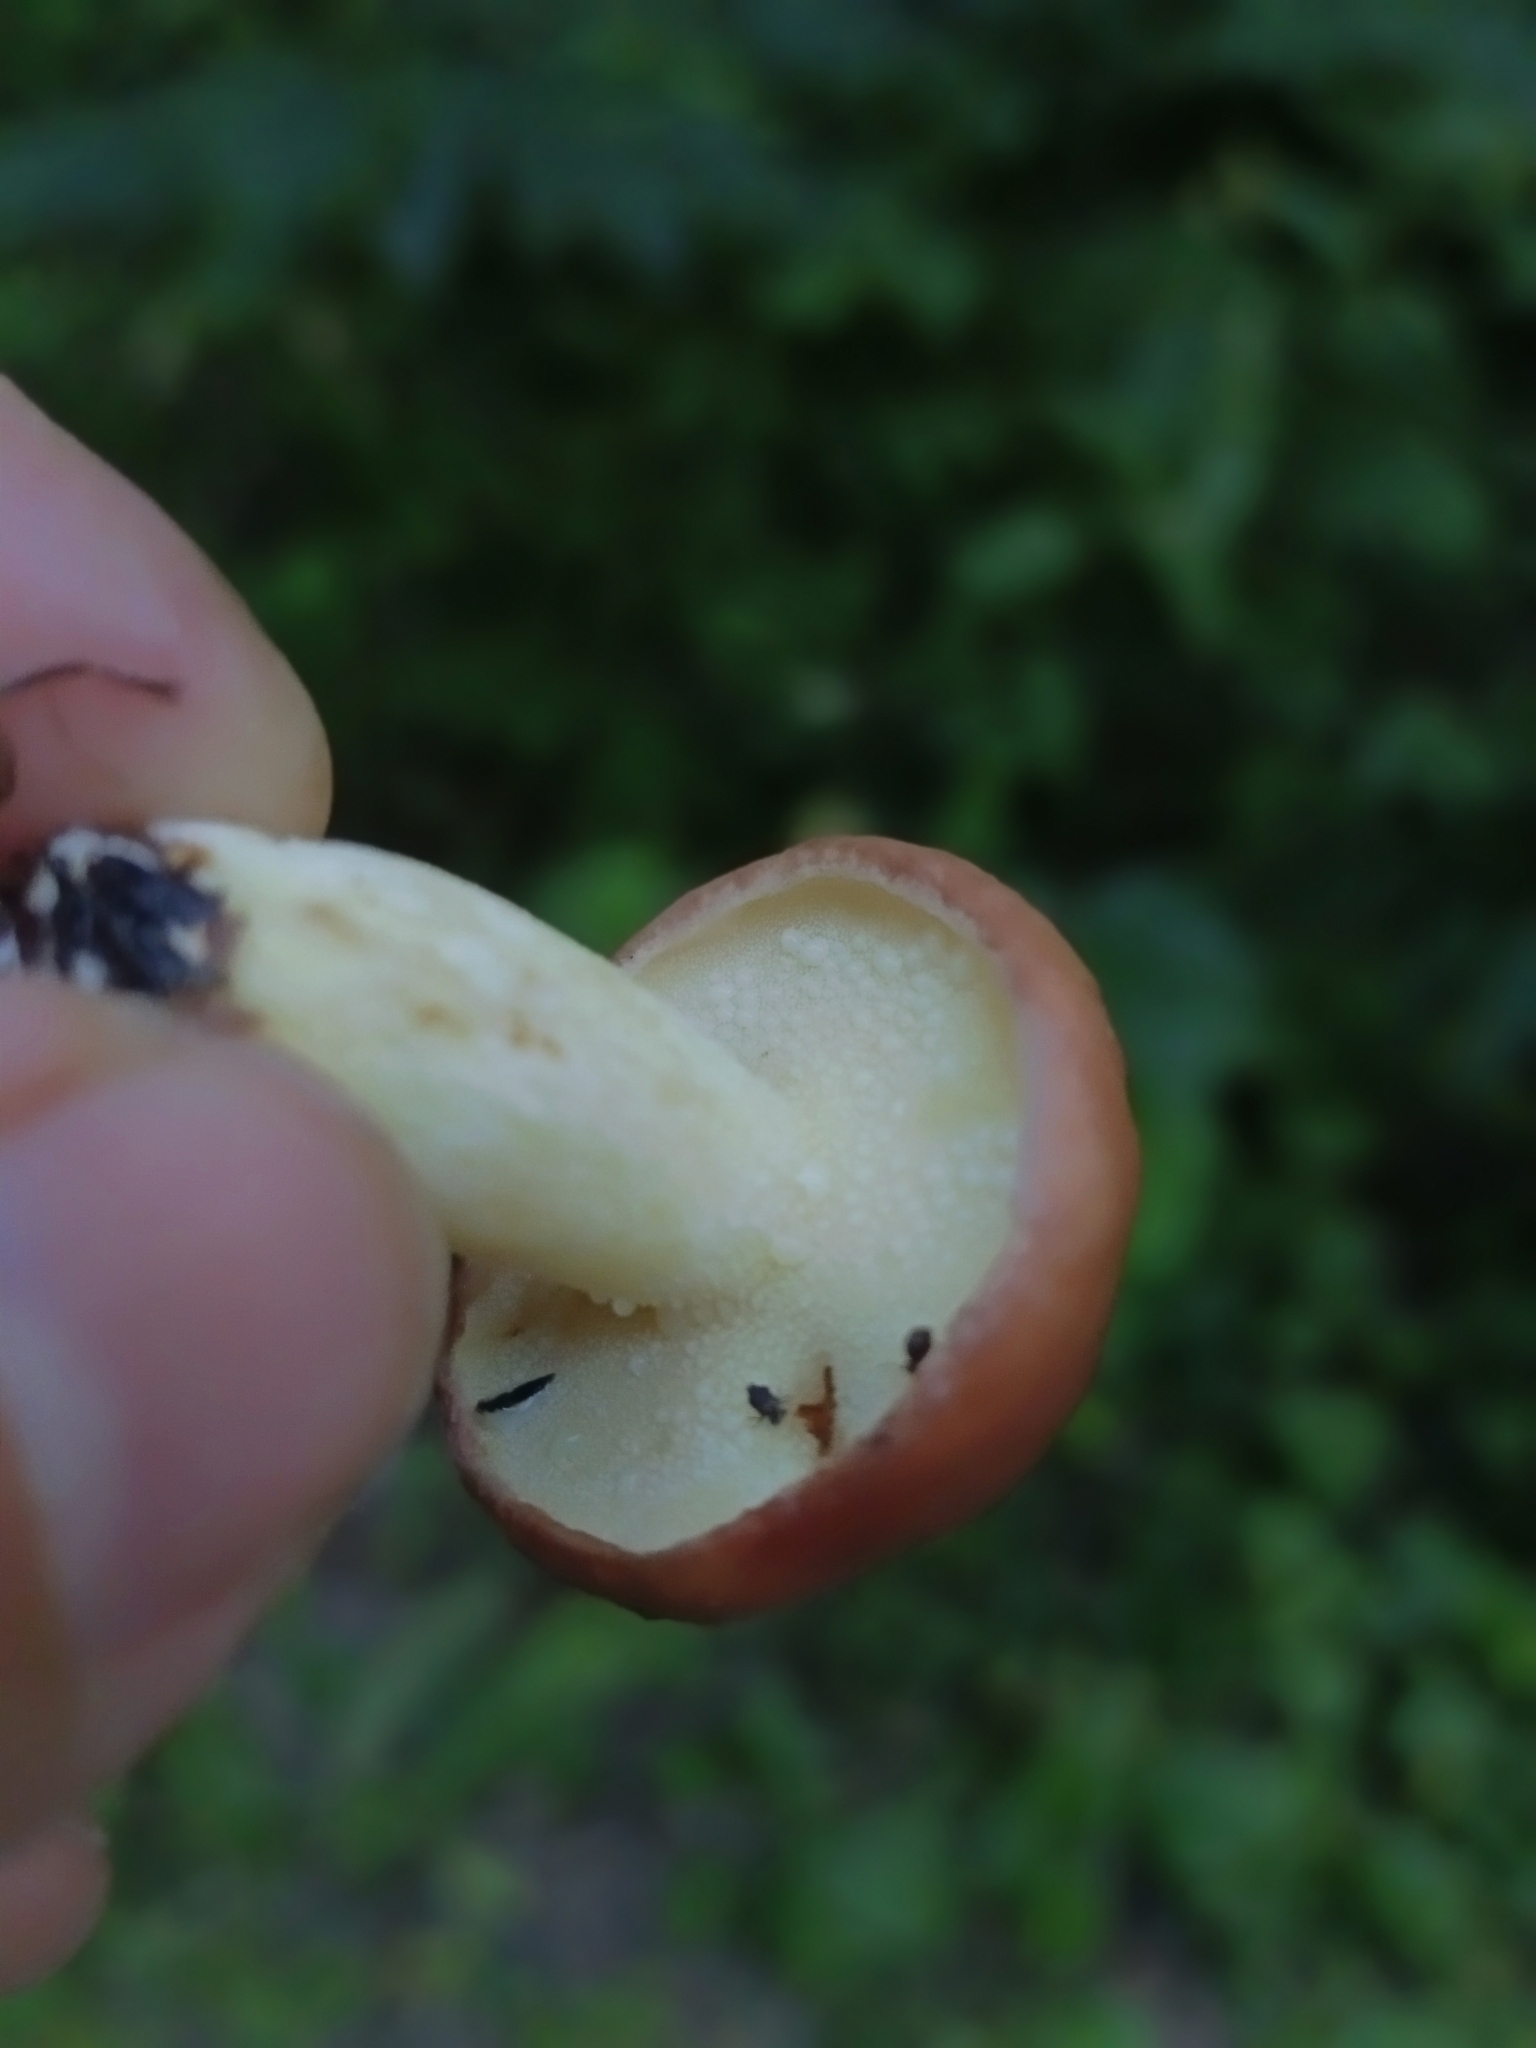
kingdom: Fungi
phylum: Basidiomycota
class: Agaricomycetes
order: Boletales
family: Suillaceae
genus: Suillus
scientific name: Suillus granulatus
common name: Weeping bolete
